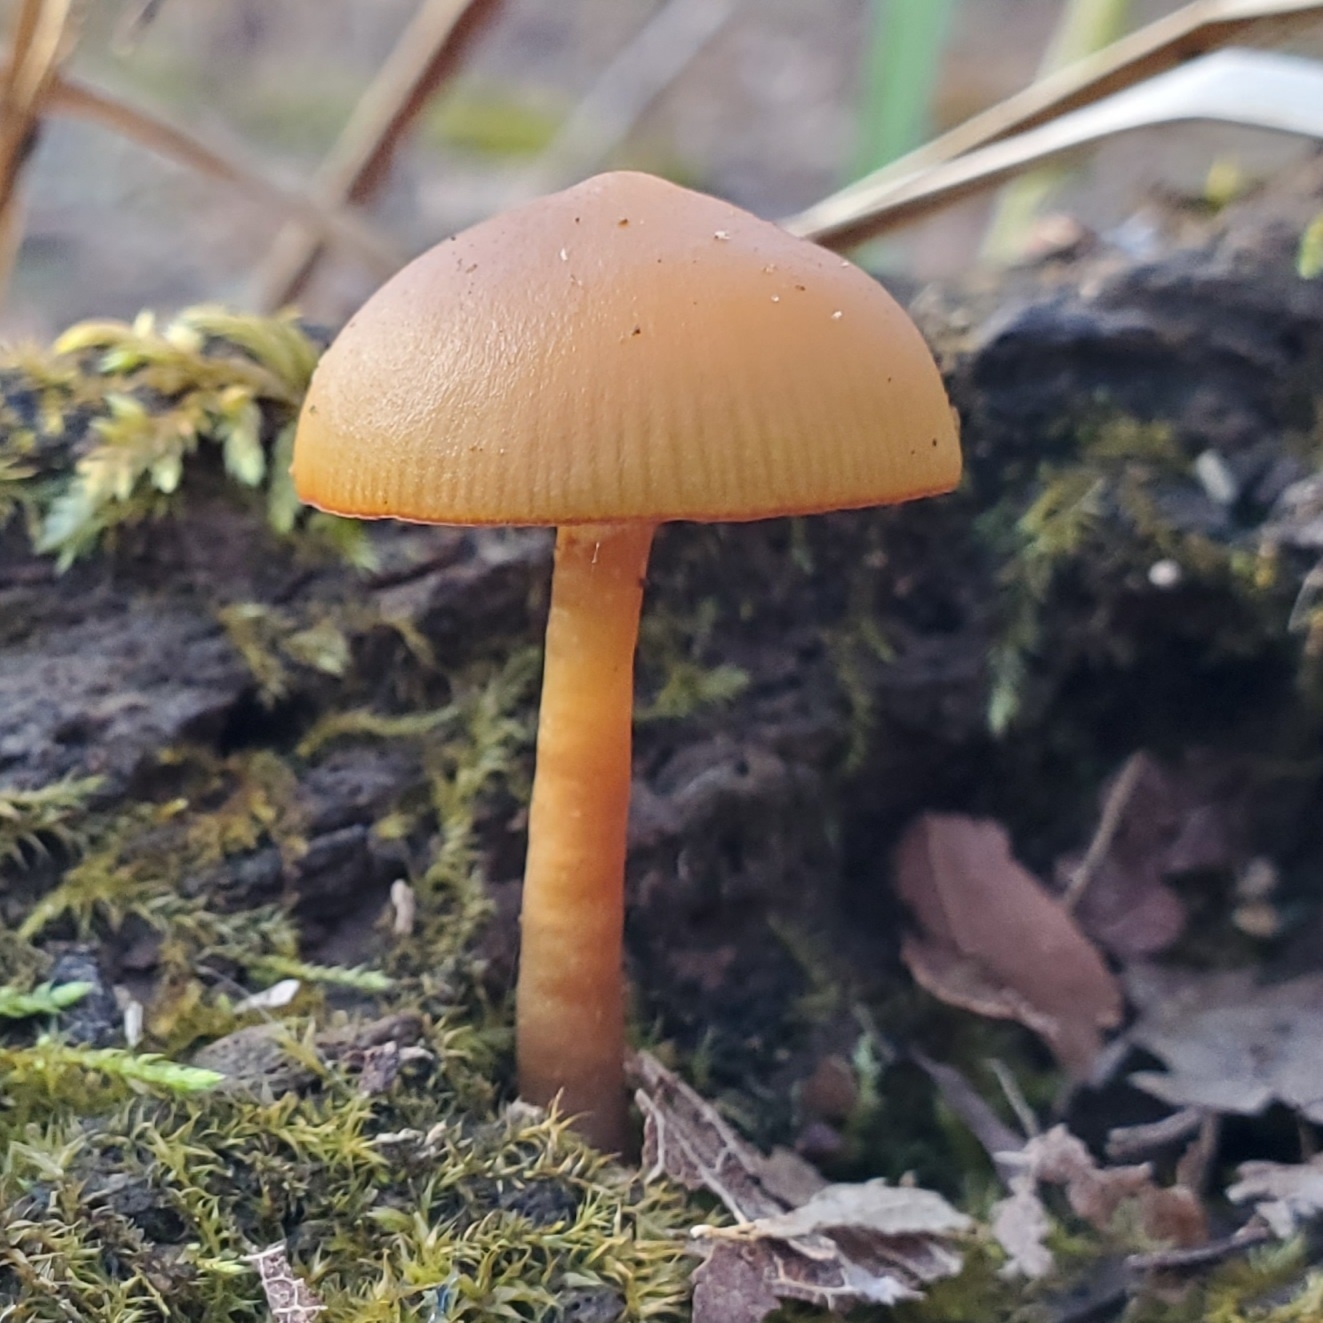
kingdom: Fungi
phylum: Basidiomycota
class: Agaricomycetes
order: Agaricales
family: Hymenogastraceae
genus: Galerina
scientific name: Galerina marginata
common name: Funeral bell
